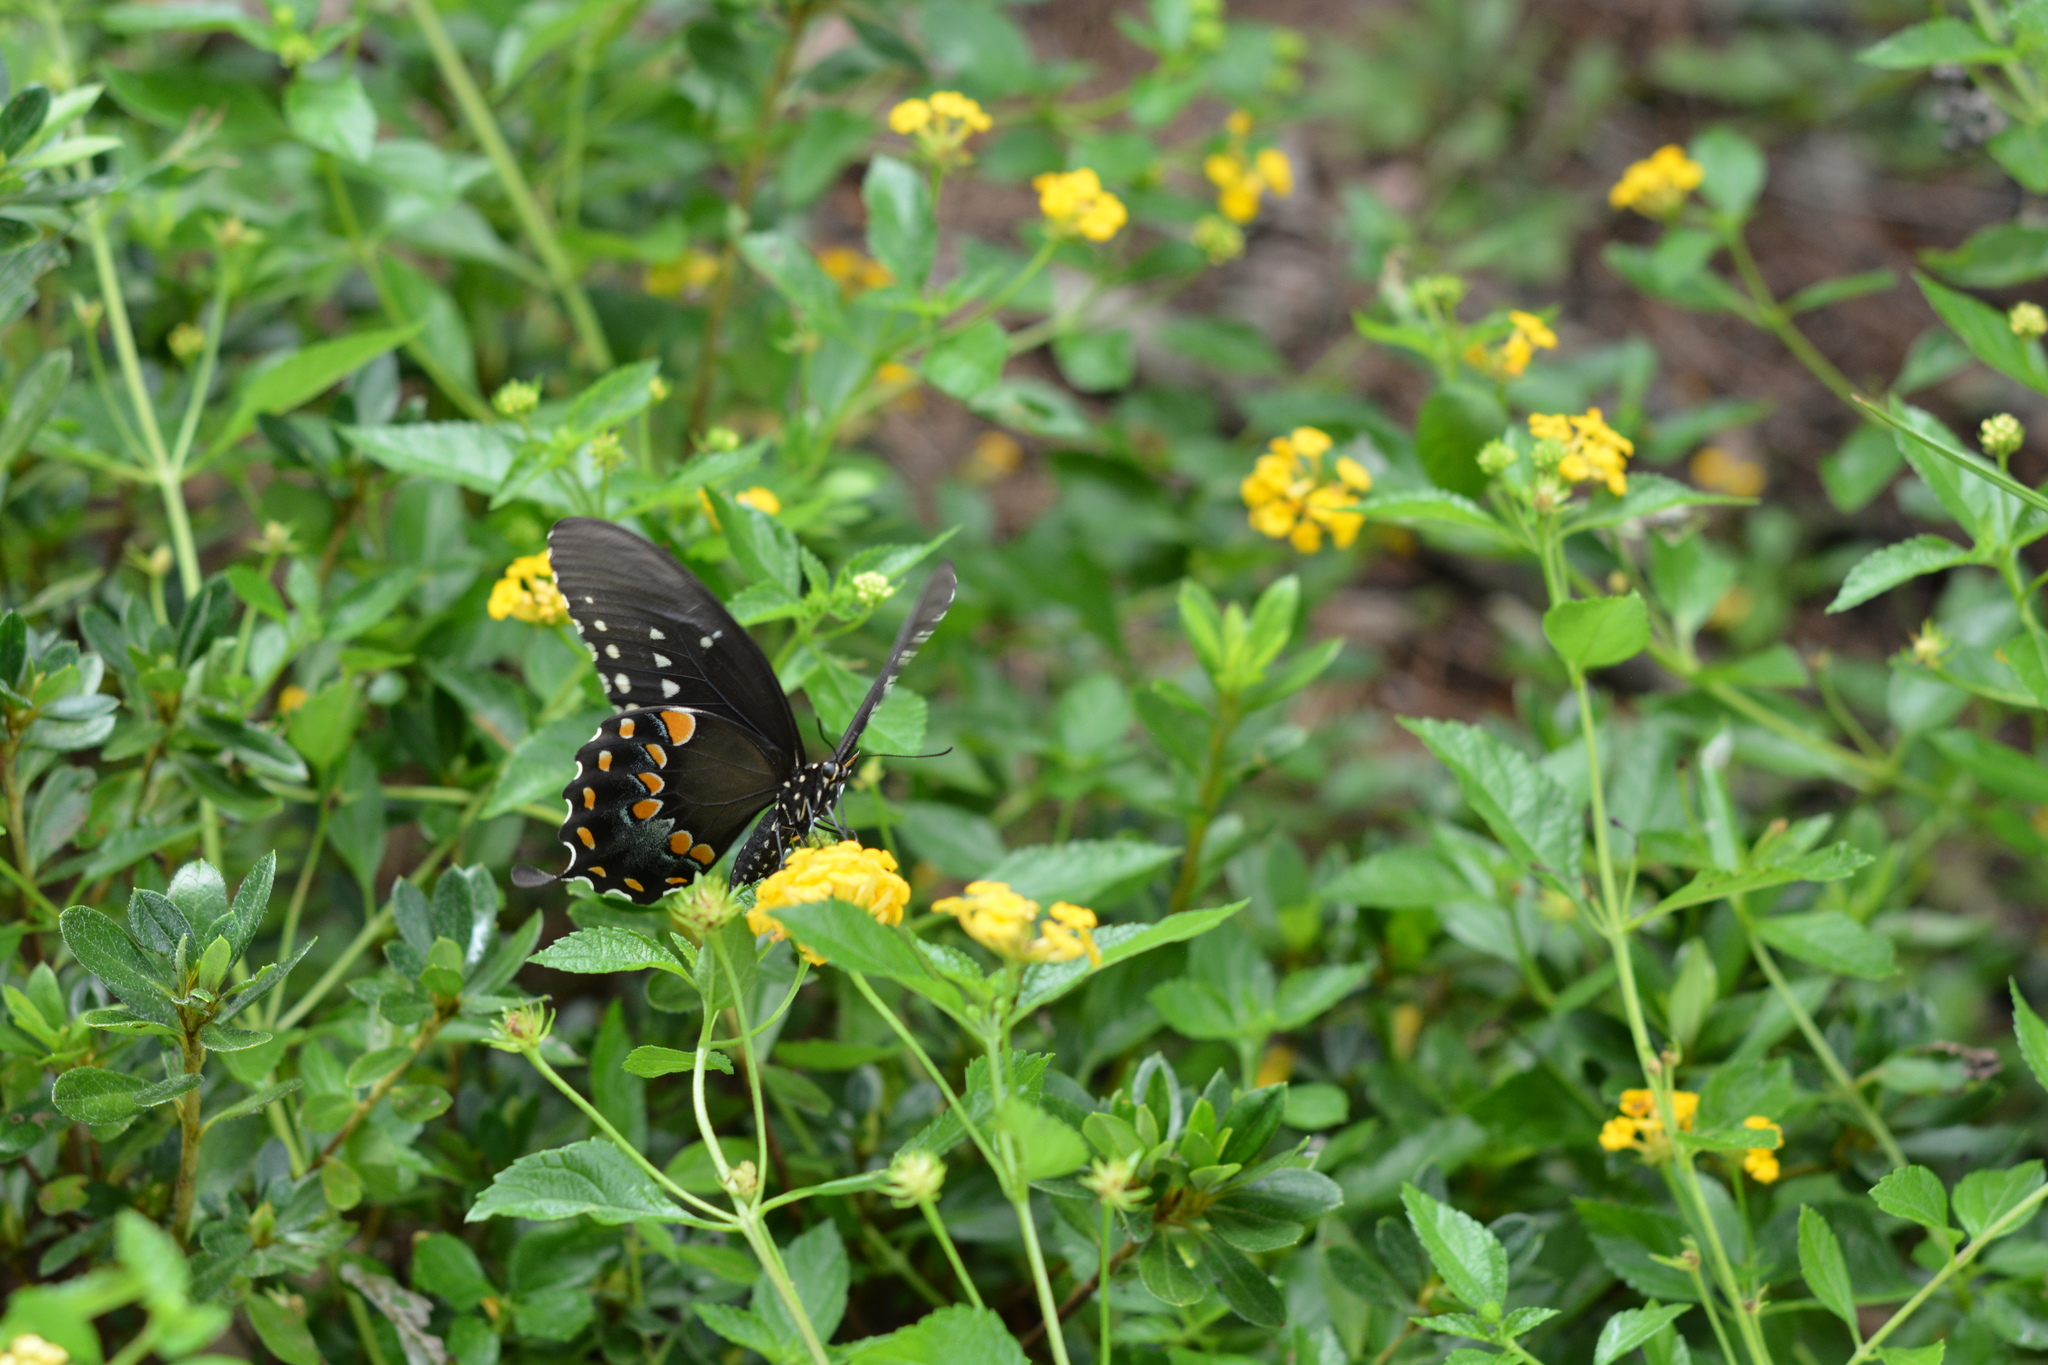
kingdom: Animalia
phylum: Arthropoda
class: Insecta
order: Lepidoptera
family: Papilionidae
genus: Papilio
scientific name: Papilio troilus
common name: Spicebush swallowtail
